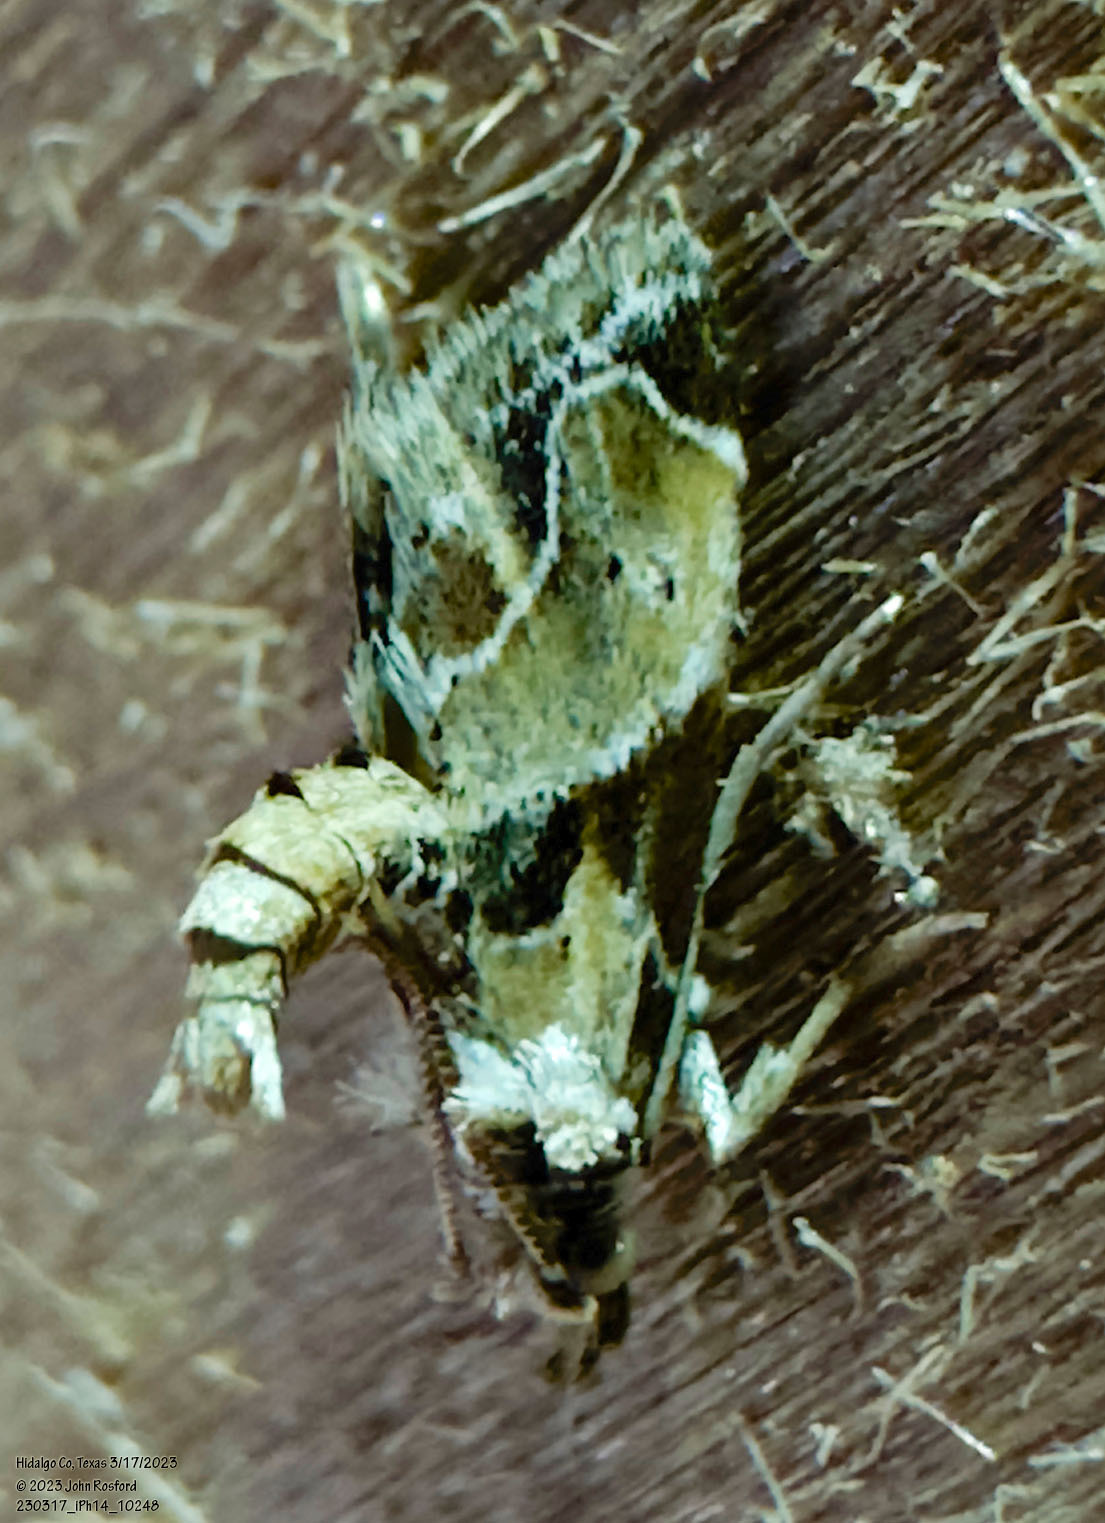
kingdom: Animalia
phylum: Arthropoda
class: Insecta
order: Lepidoptera
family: Pyralidae
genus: Neodavisia
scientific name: Neodavisia melusina
